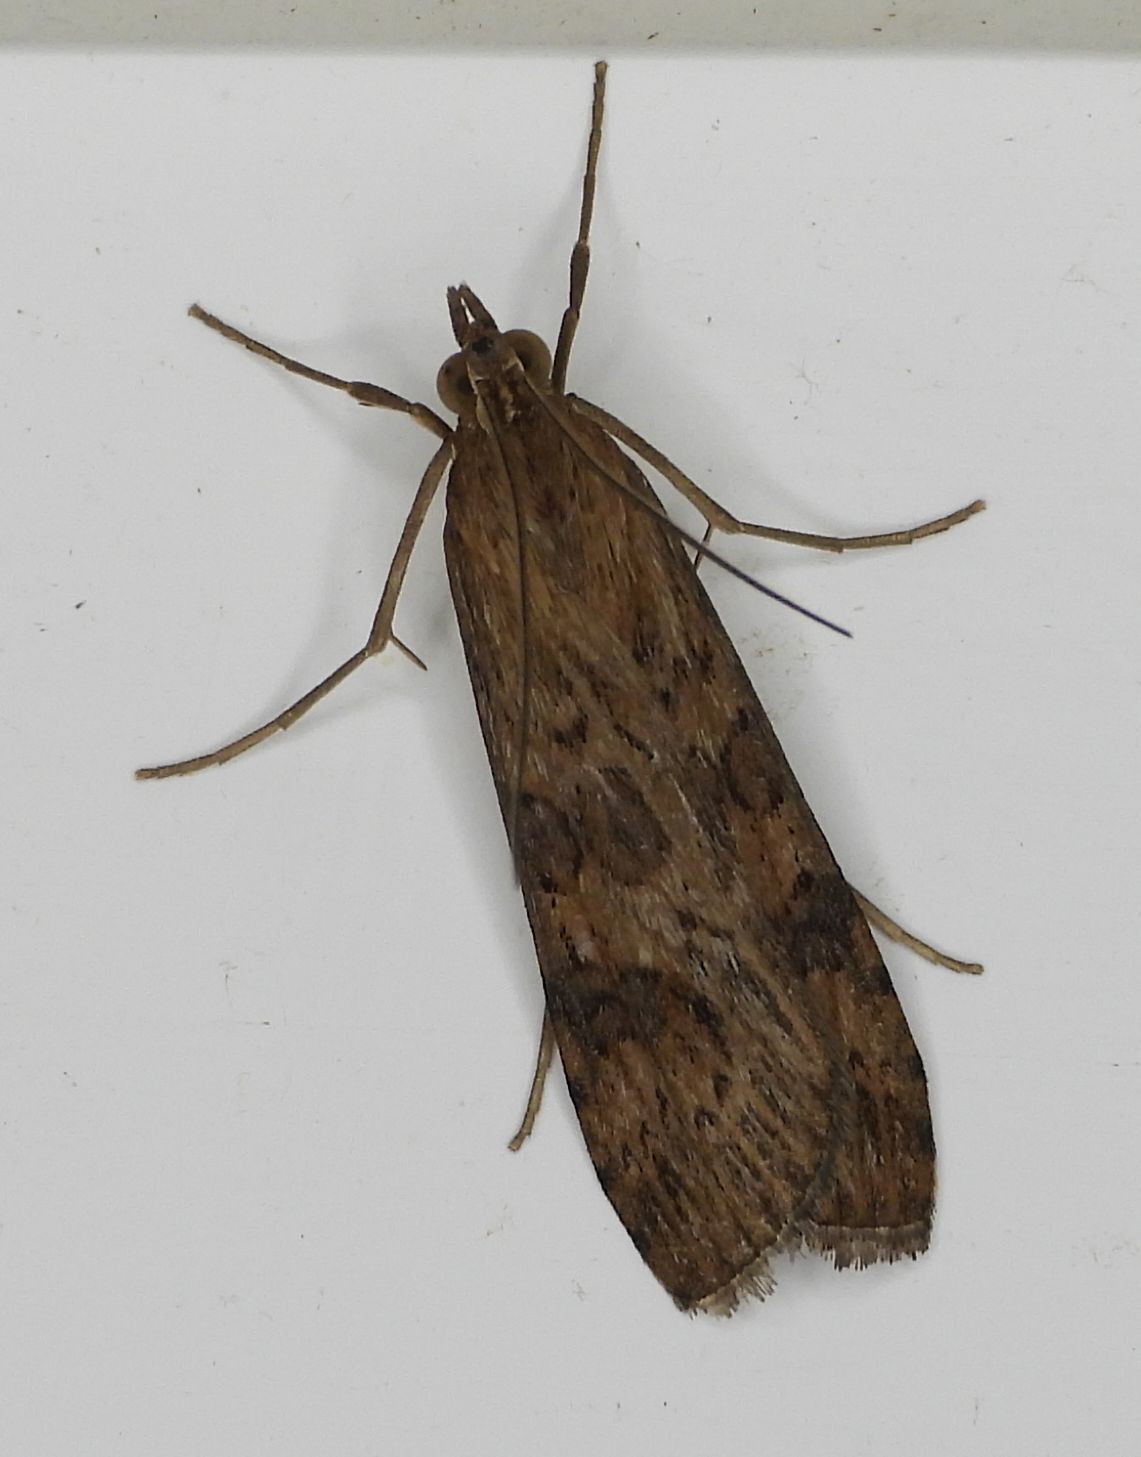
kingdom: Animalia
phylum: Arthropoda
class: Insecta
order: Lepidoptera
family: Crambidae
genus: Nomophila
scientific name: Nomophila nearctica
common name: American rush veneer
